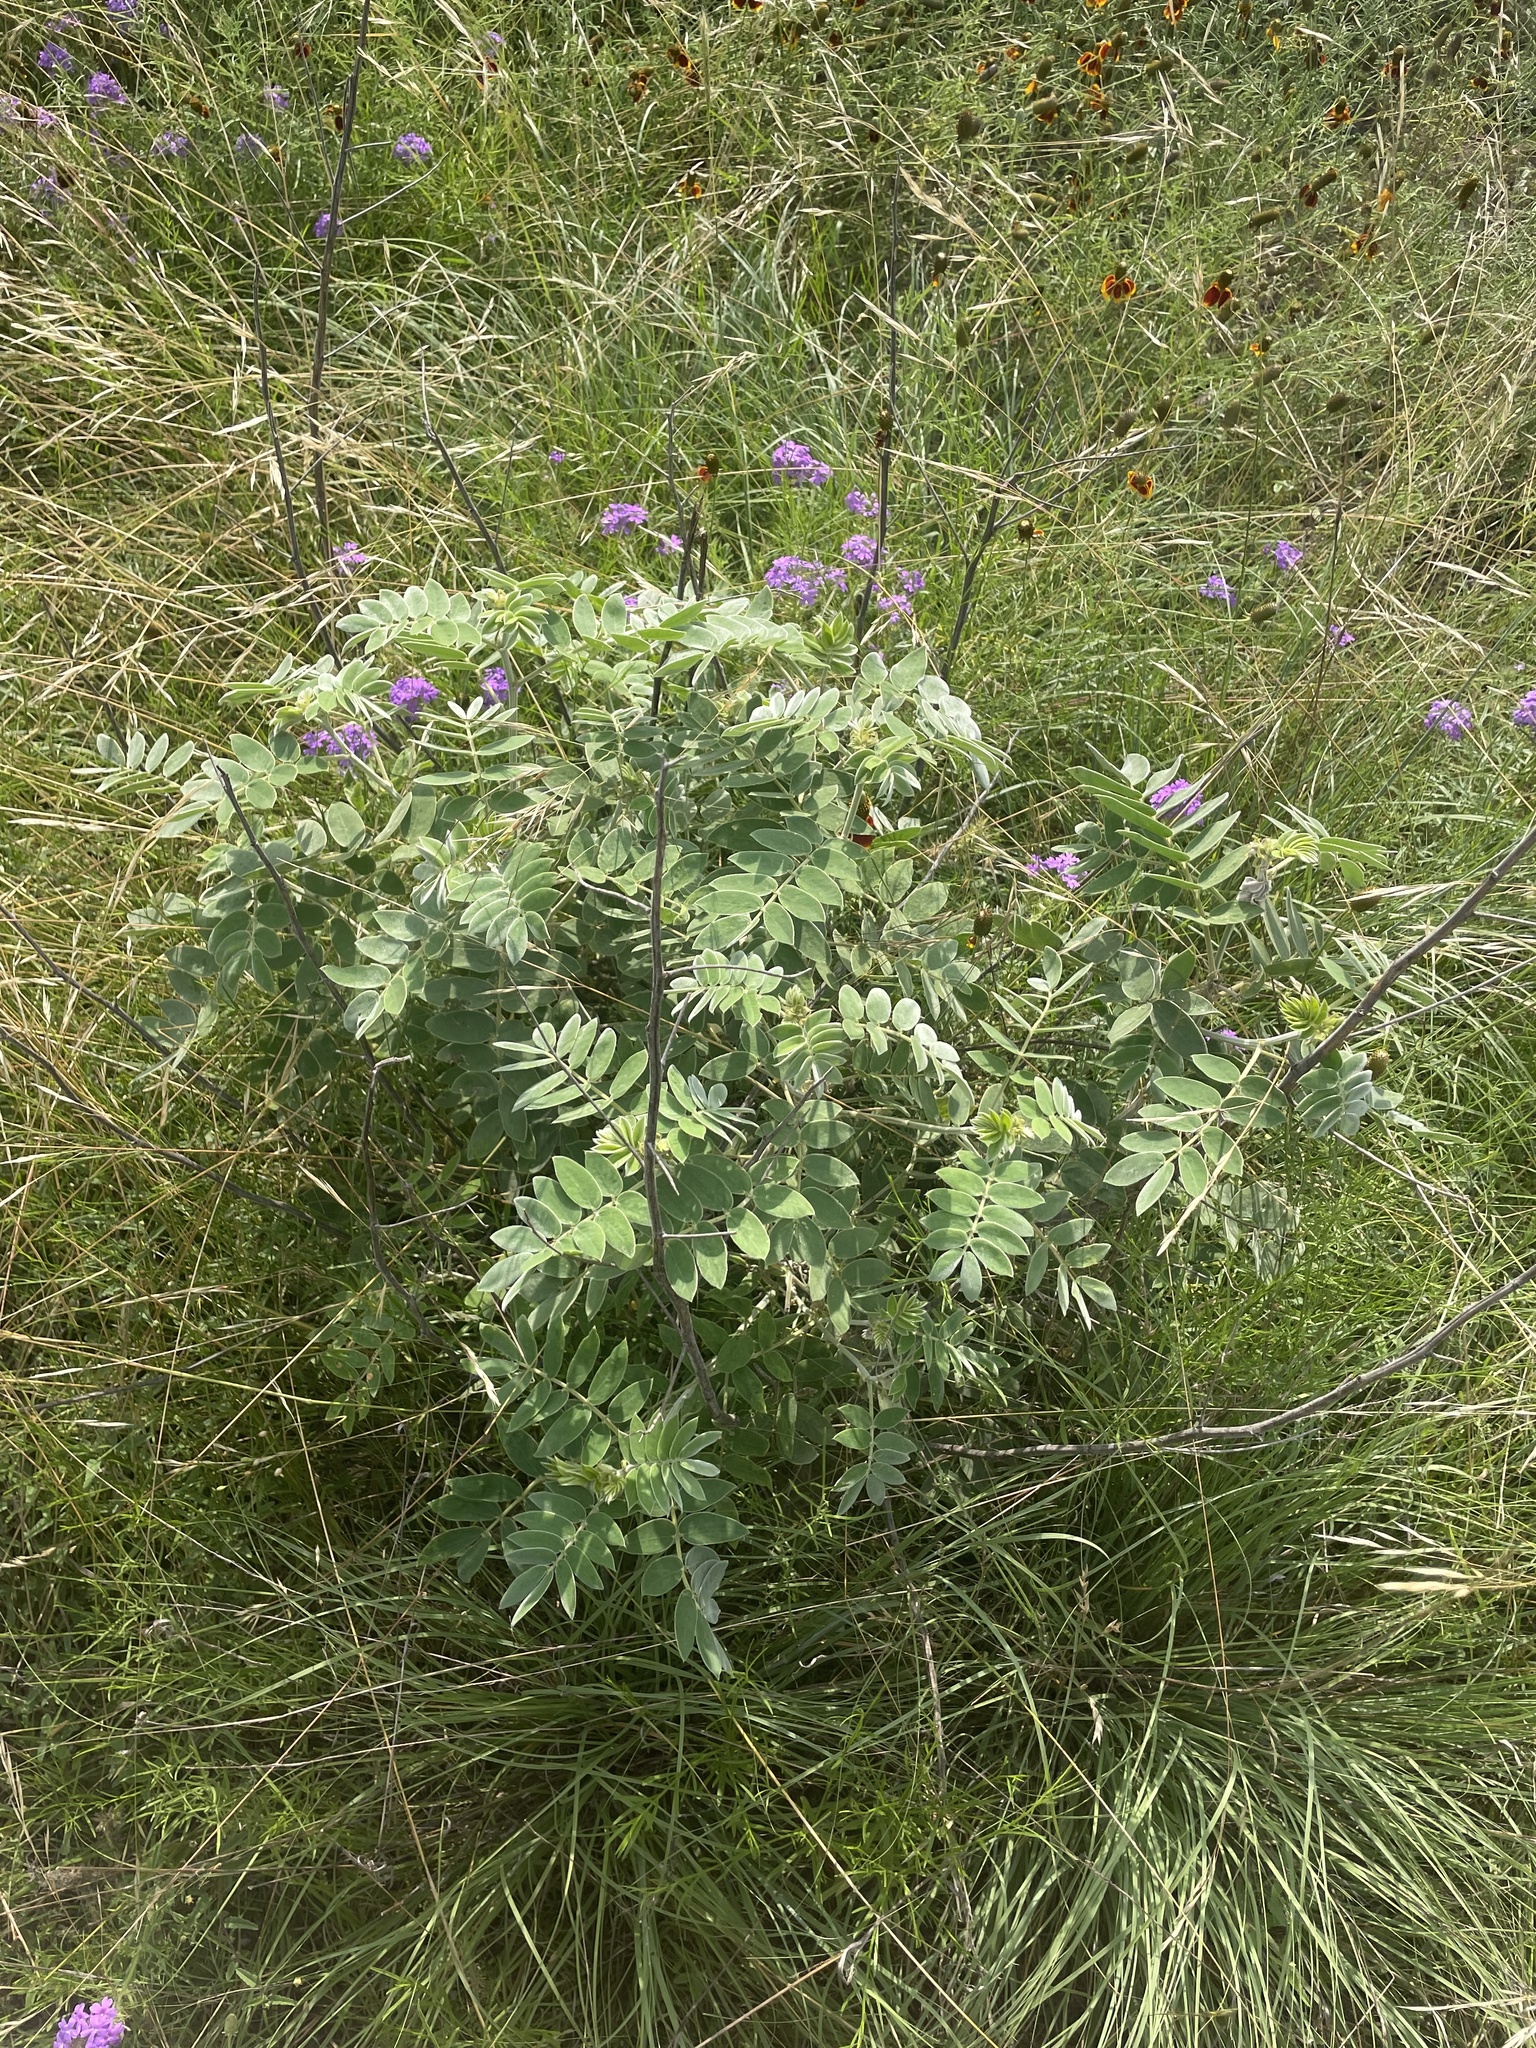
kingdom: Plantae
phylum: Tracheophyta
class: Magnoliopsida
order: Fabales
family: Fabaceae
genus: Senna
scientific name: Senna lindheimeriana
